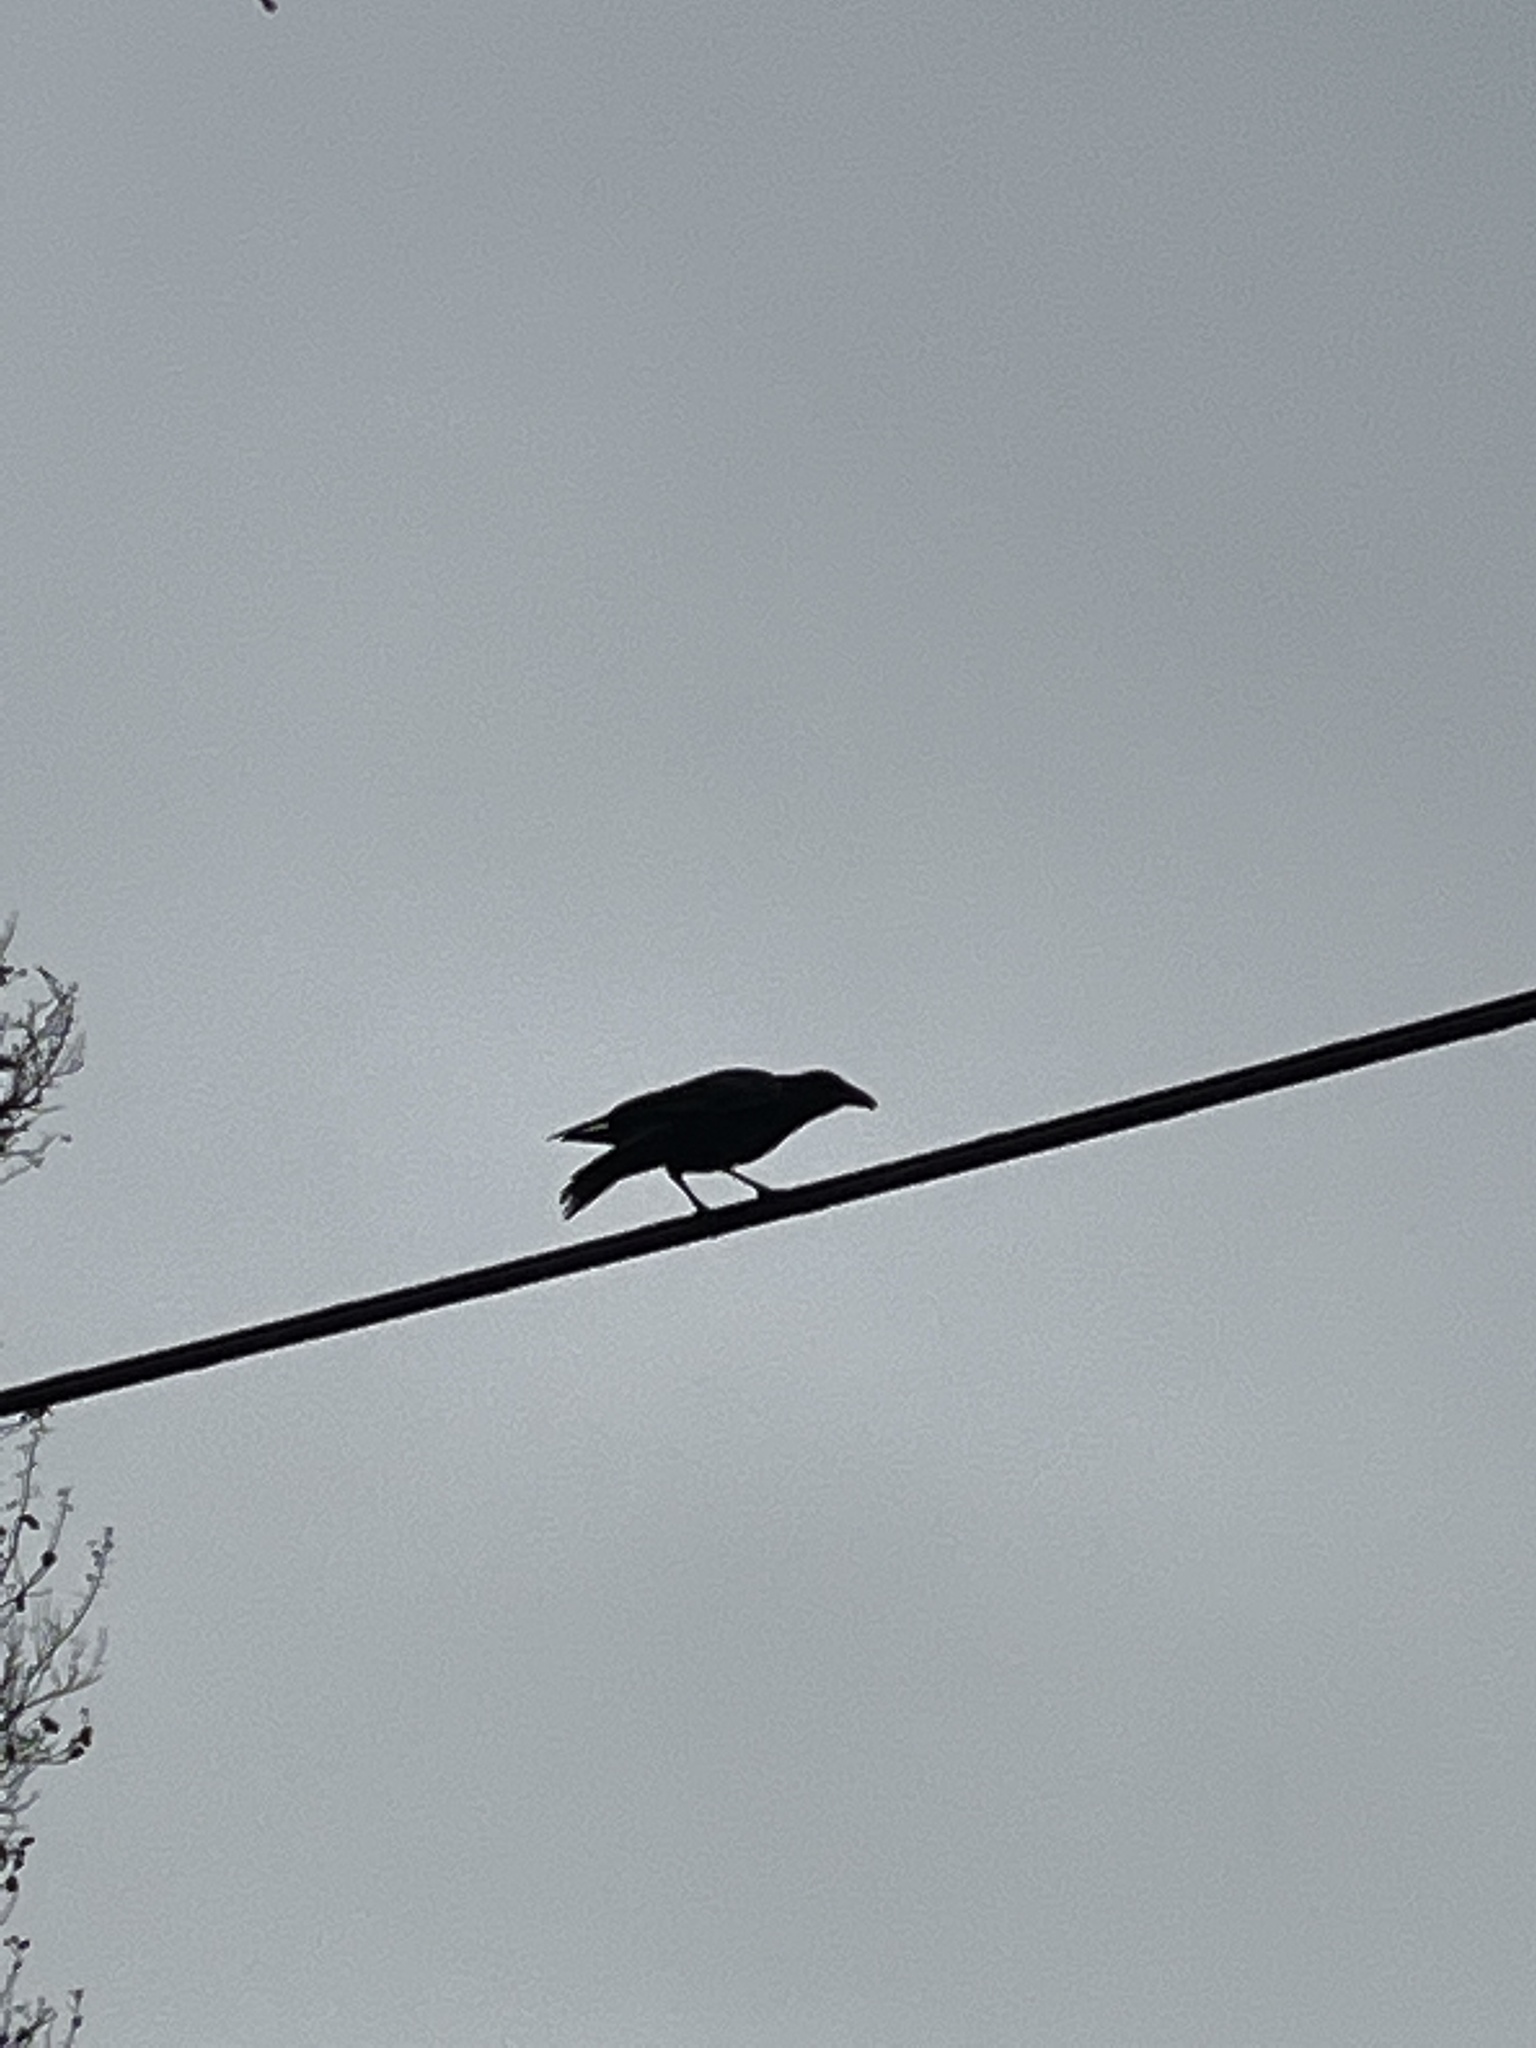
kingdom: Animalia
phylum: Chordata
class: Aves
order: Passeriformes
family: Corvidae
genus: Corvus
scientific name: Corvus brachyrhynchos
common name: American crow
